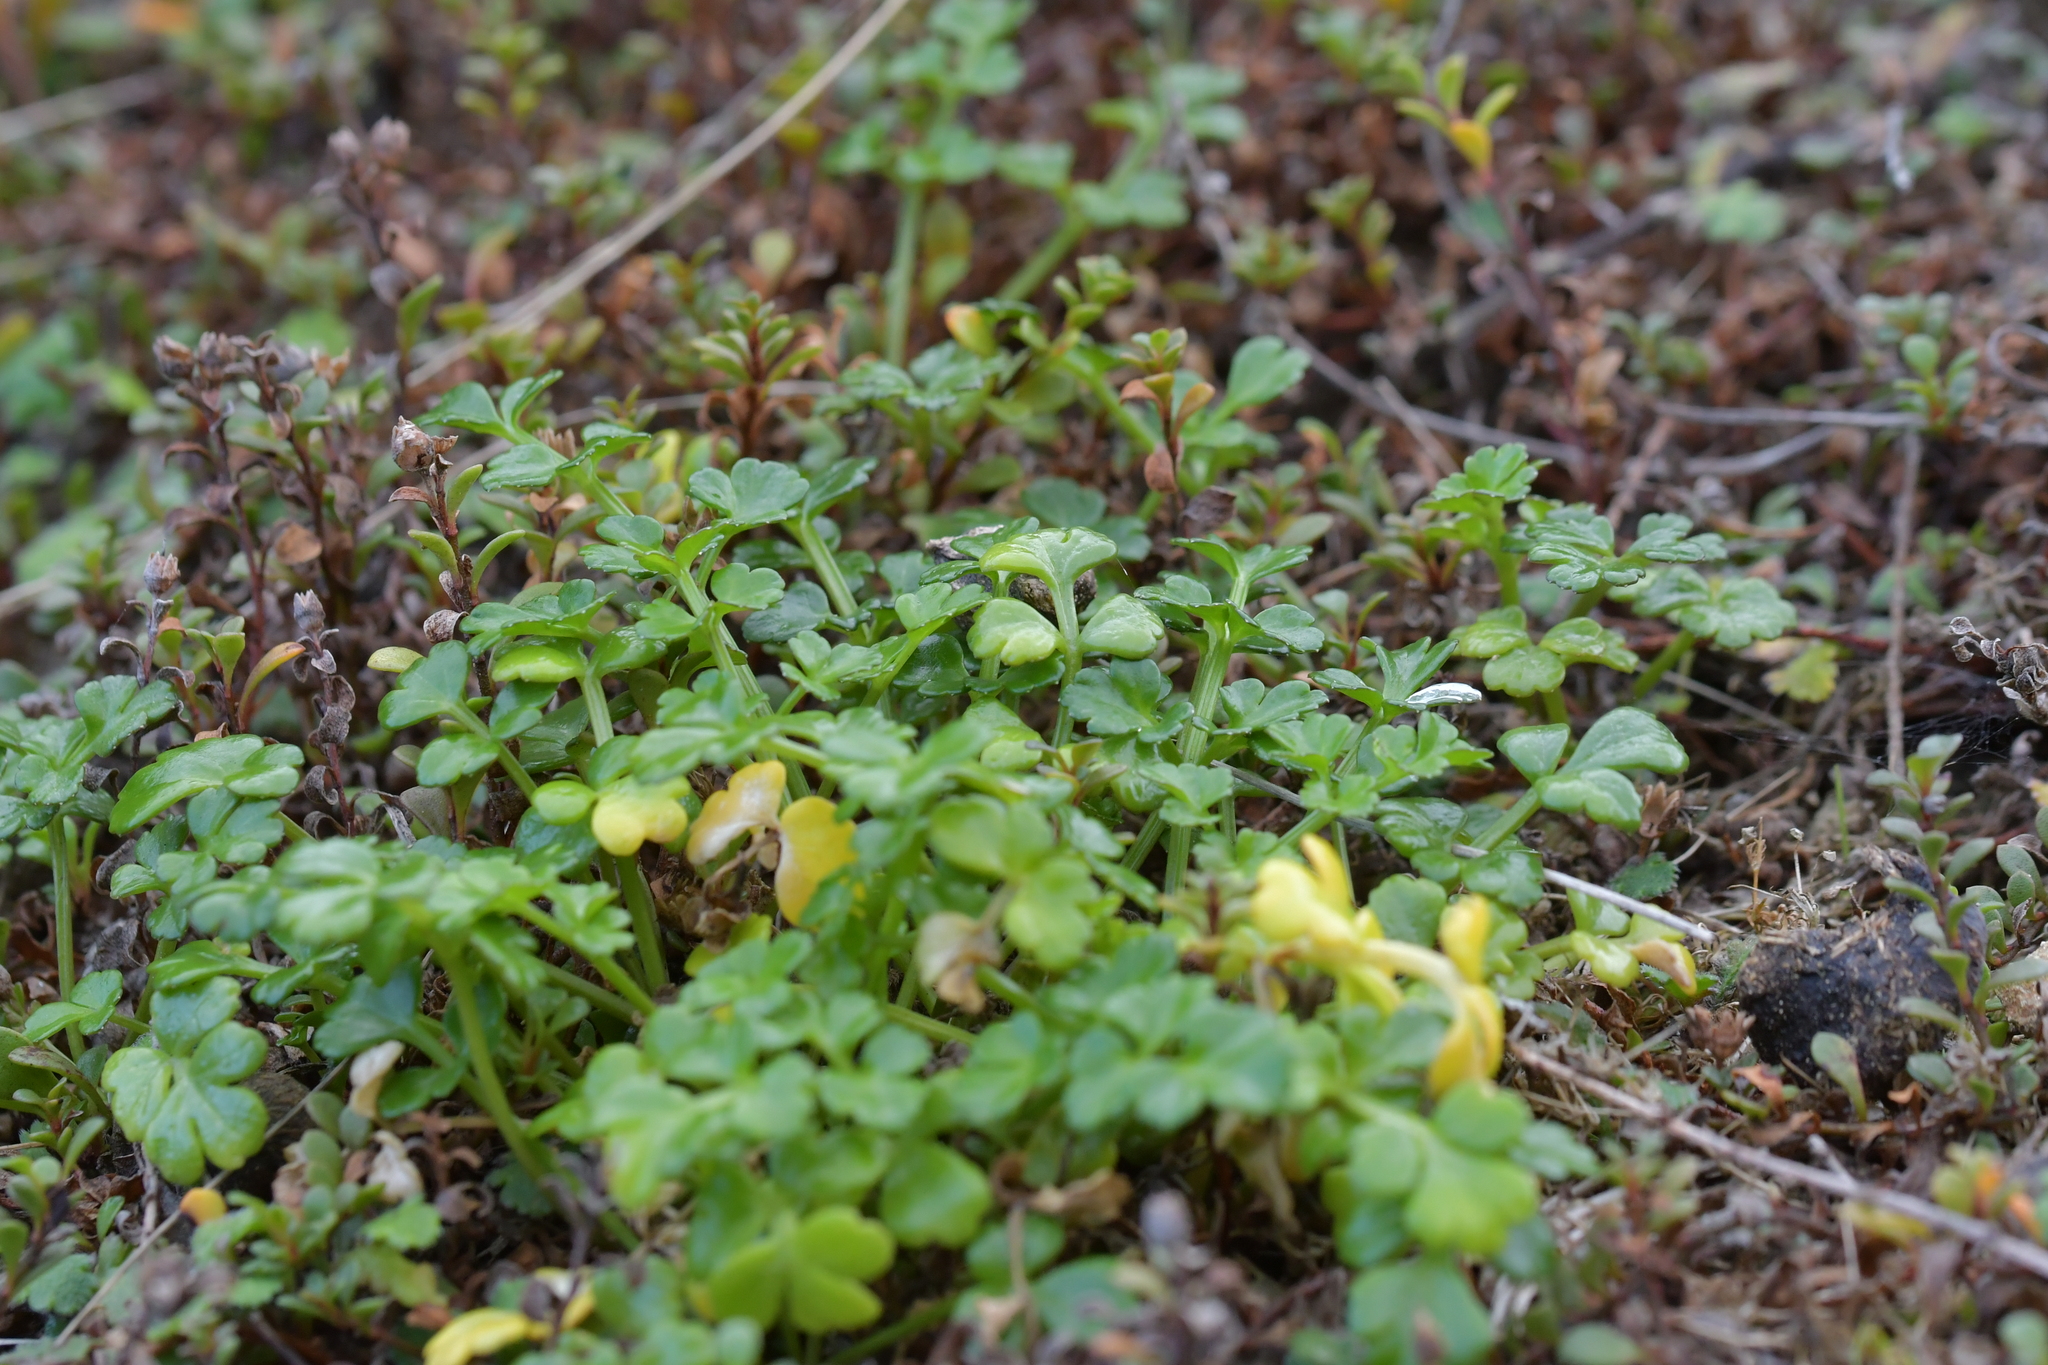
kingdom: Plantae
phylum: Tracheophyta
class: Magnoliopsida
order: Apiales
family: Apiaceae
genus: Apium
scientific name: Apium prostratum
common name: Prostrate marshwort
